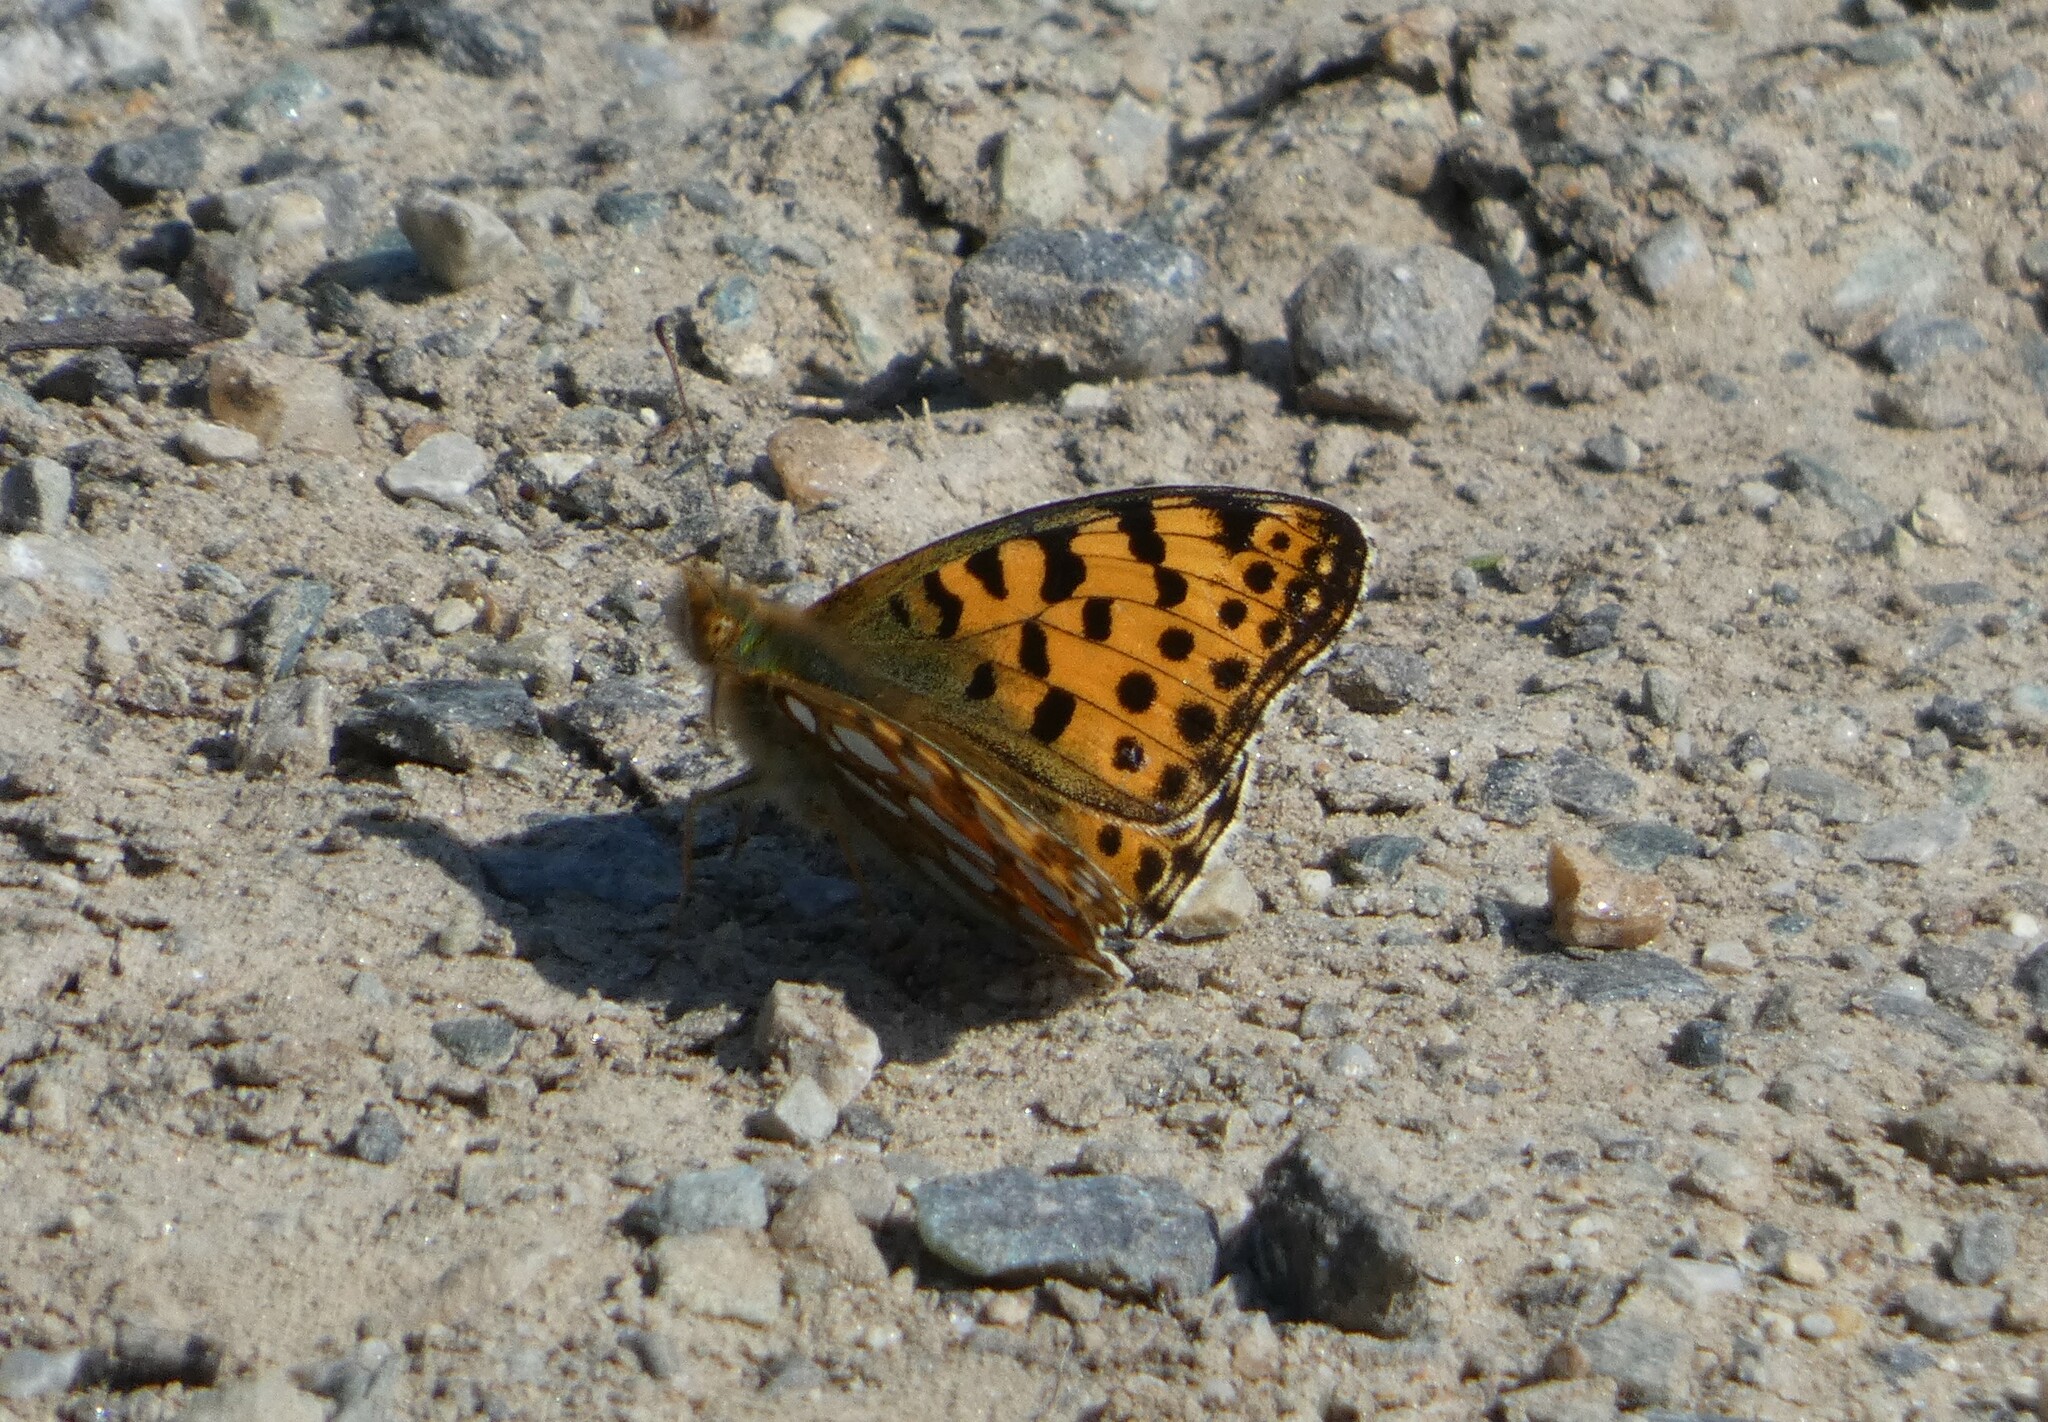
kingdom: Animalia
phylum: Arthropoda
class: Insecta
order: Lepidoptera
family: Nymphalidae
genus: Issoria
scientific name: Issoria lathonia
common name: Queen of spain fritillary
